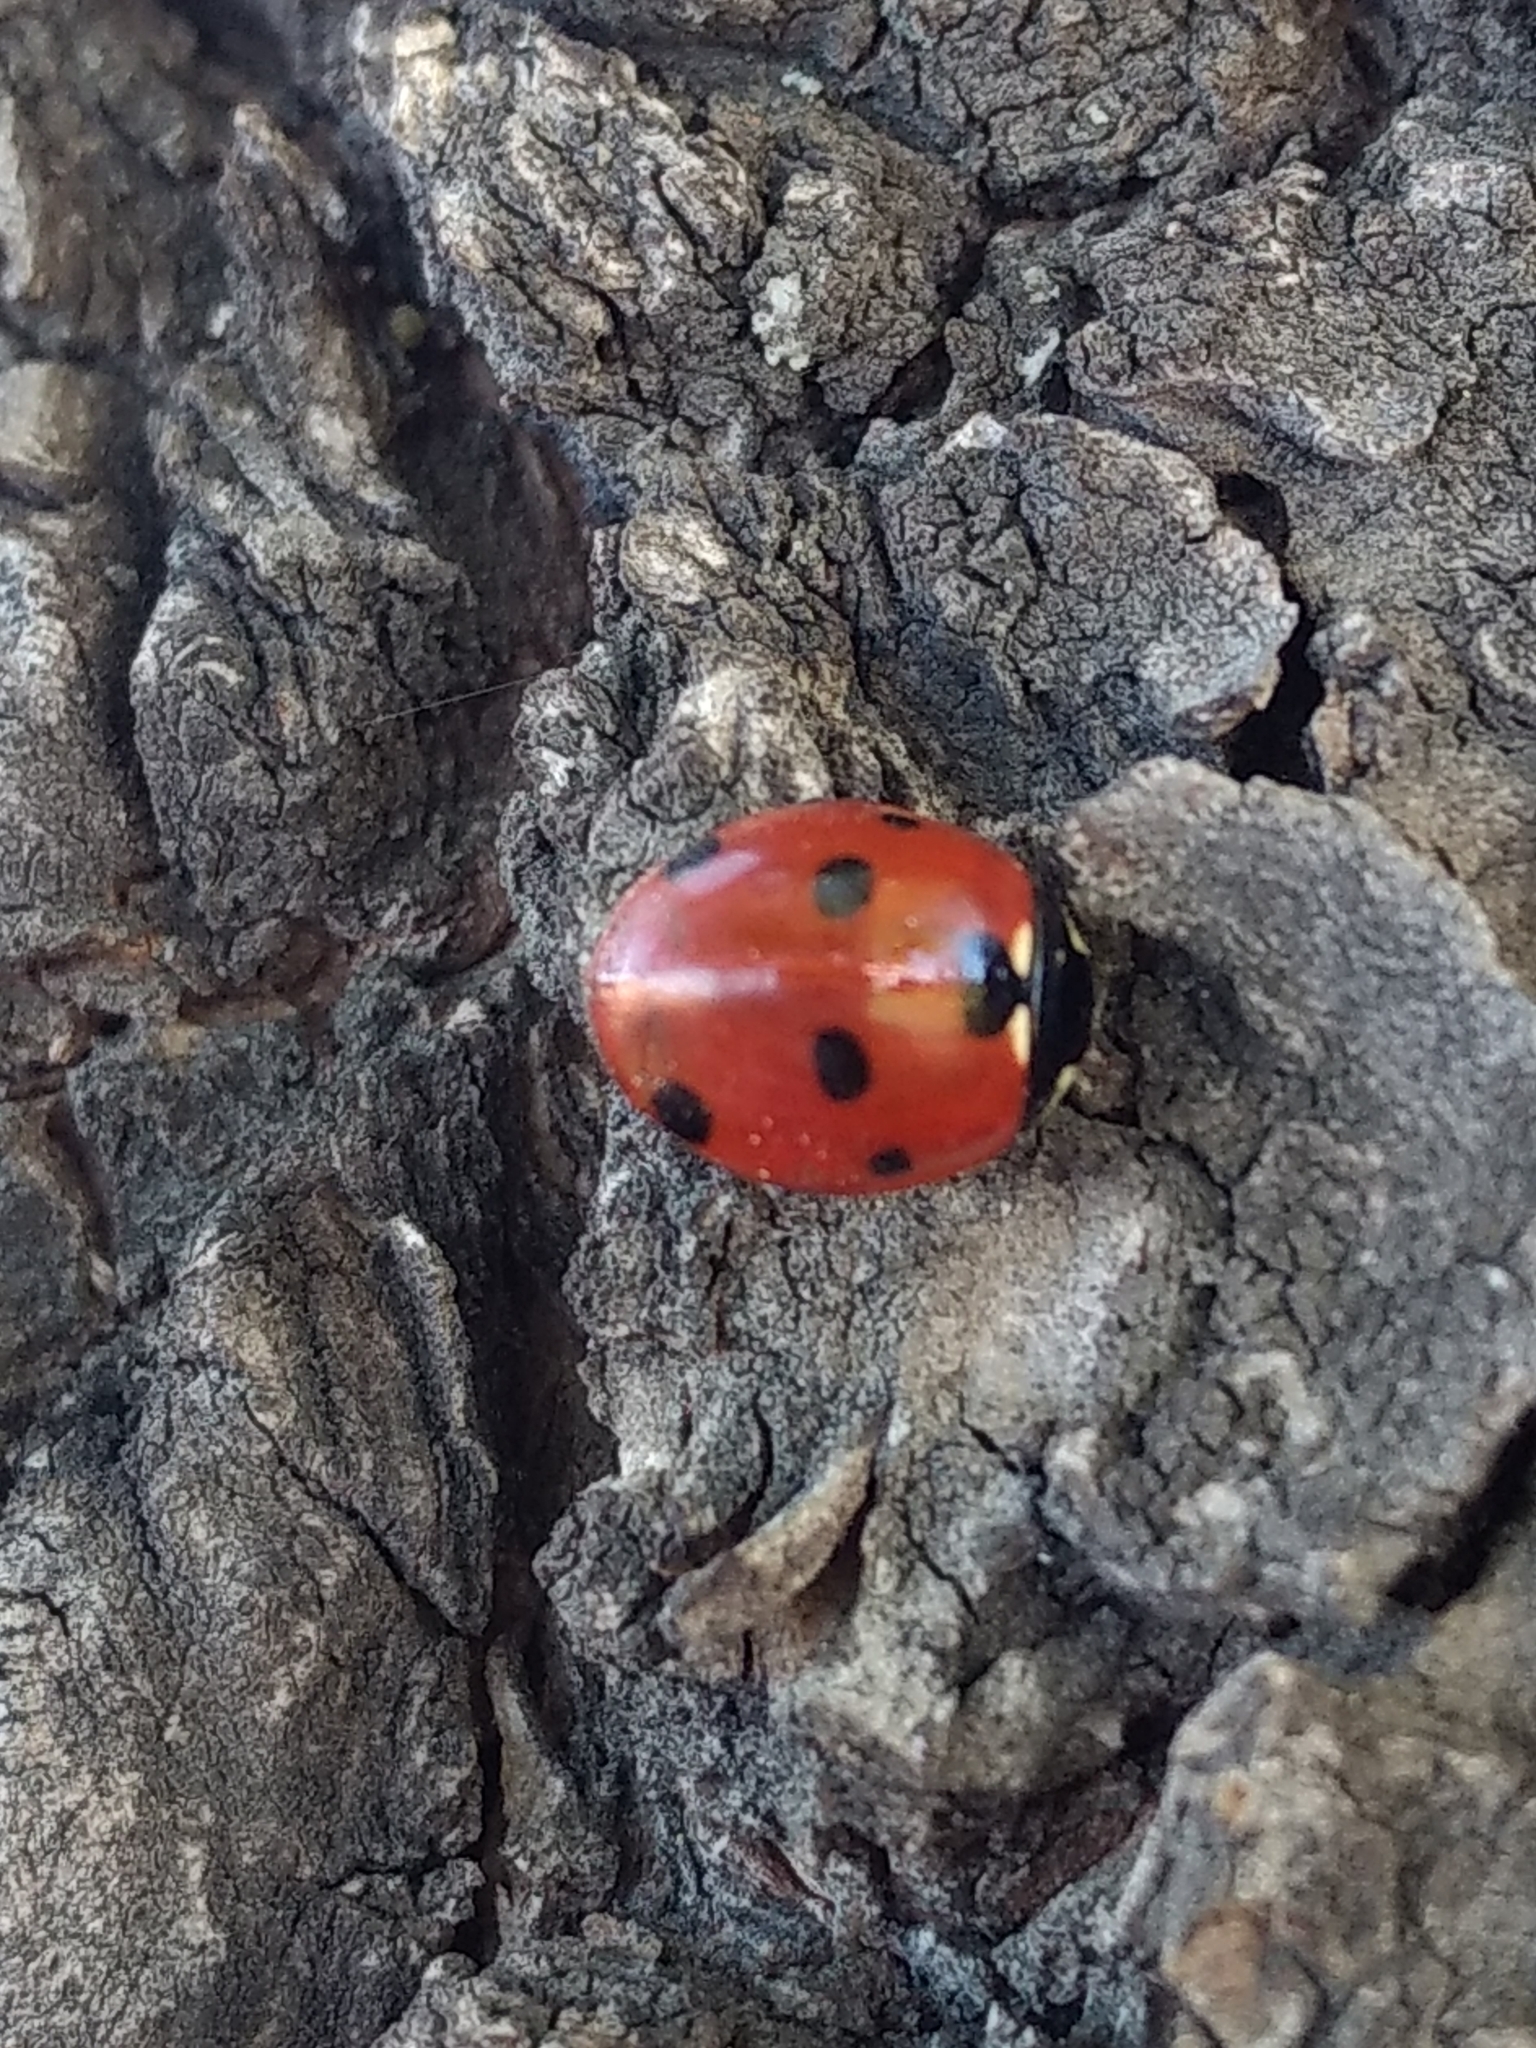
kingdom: Animalia
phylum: Arthropoda
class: Insecta
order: Coleoptera
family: Coccinellidae
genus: Coccinella
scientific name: Coccinella septempunctata
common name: Sevenspotted lady beetle
